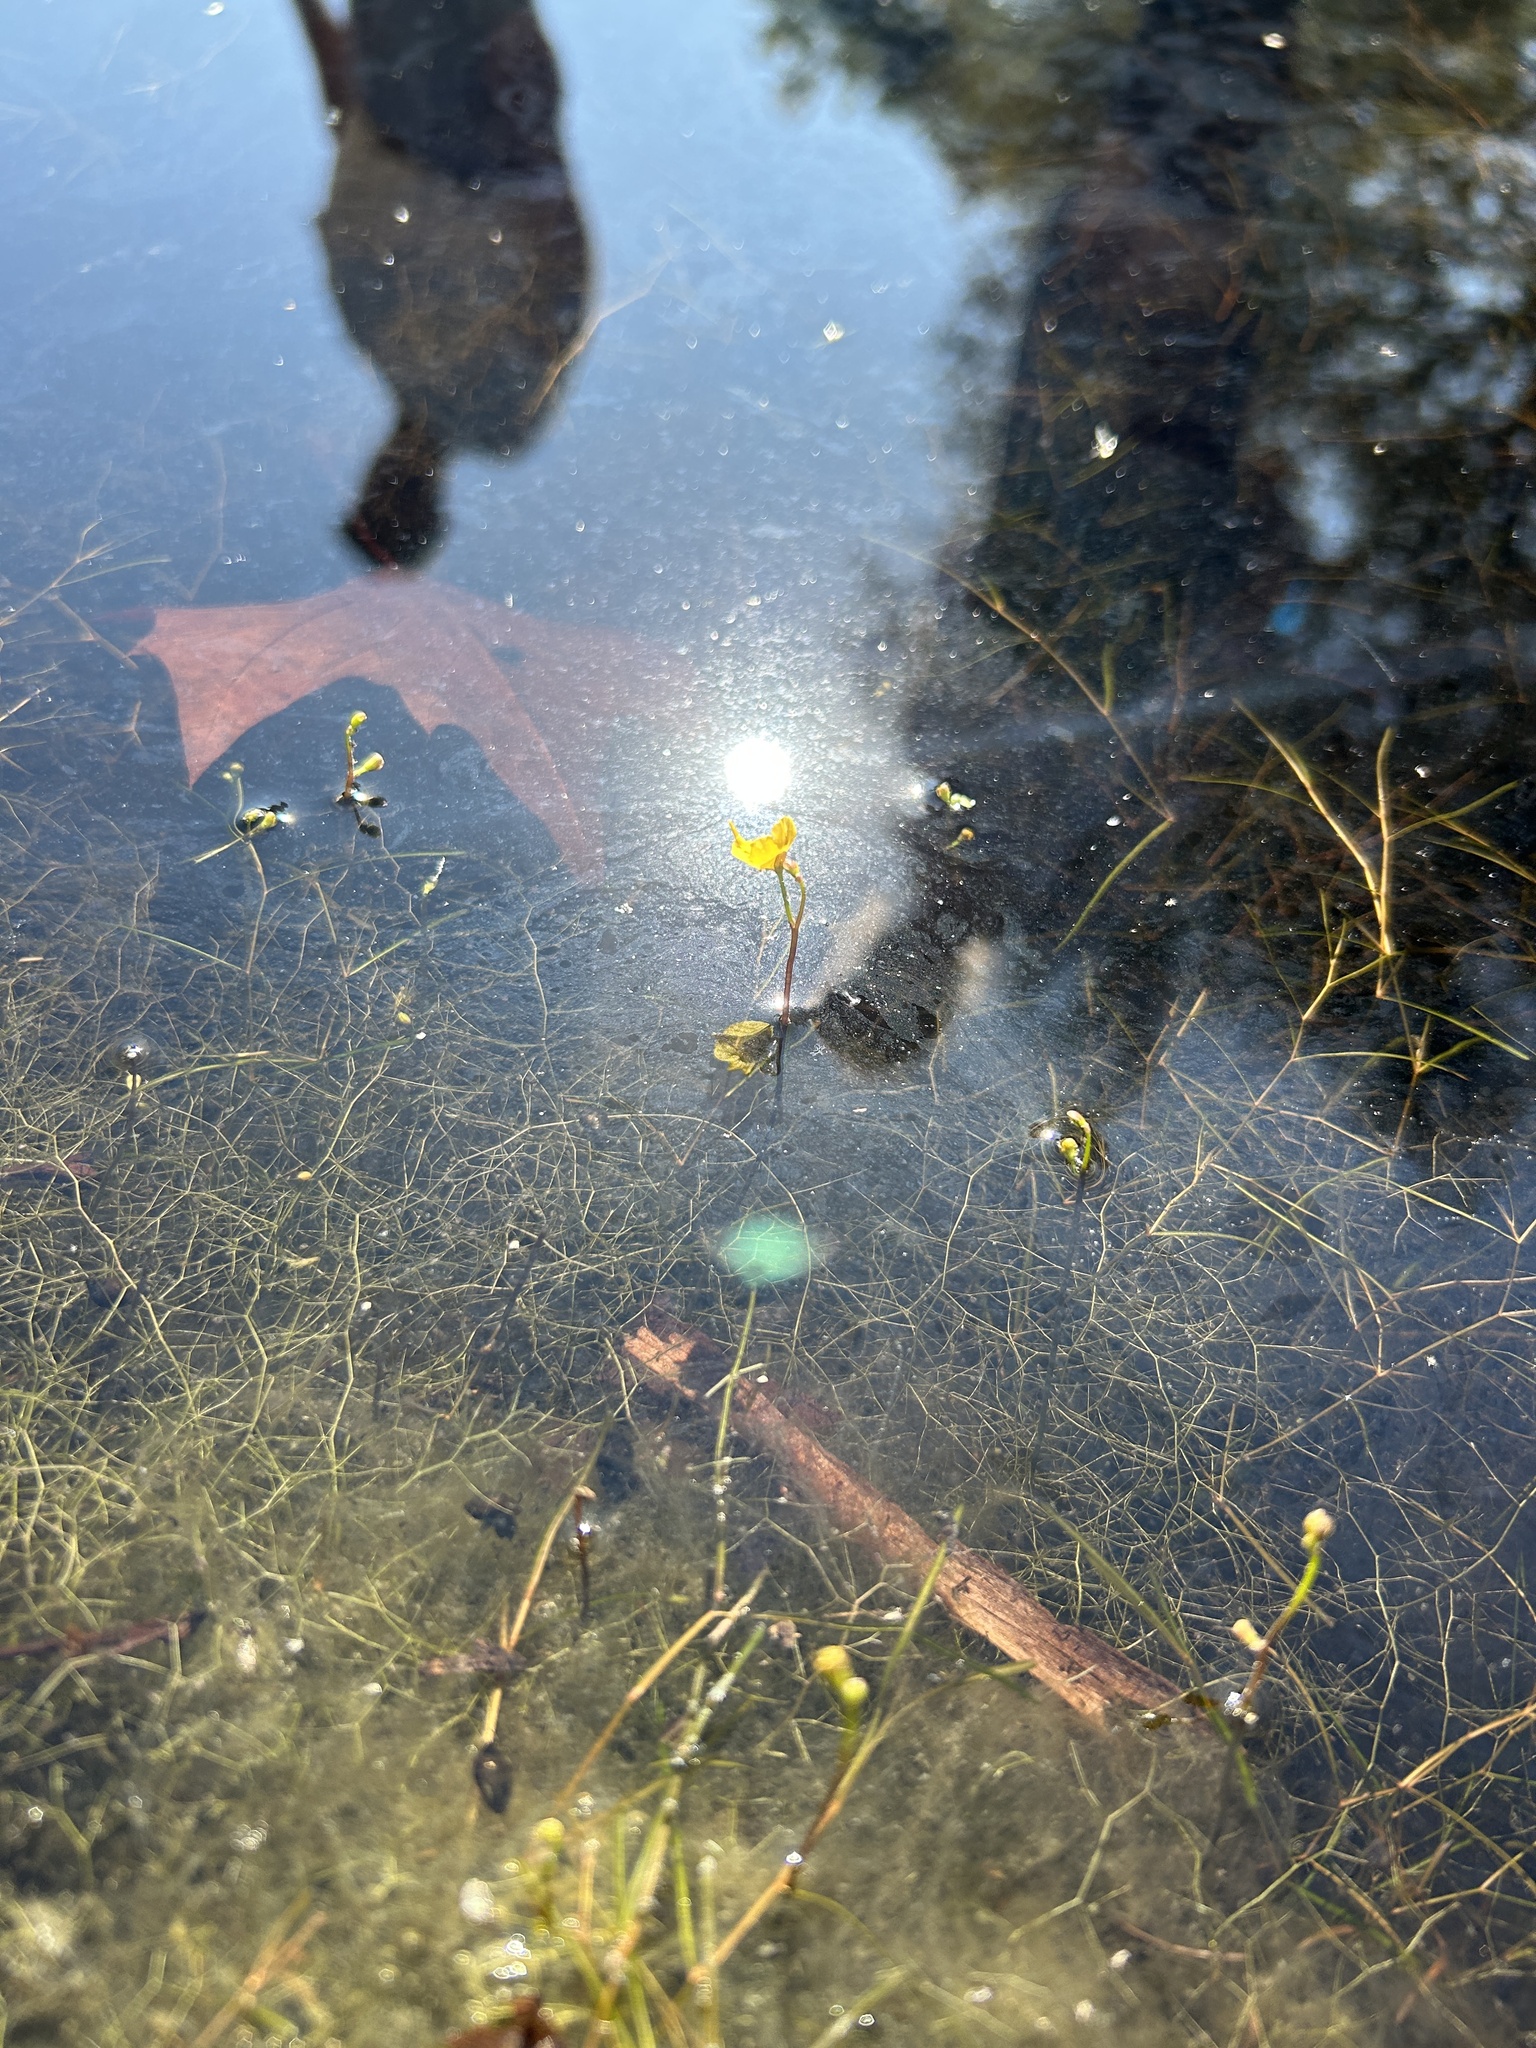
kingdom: Plantae
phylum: Tracheophyta
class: Magnoliopsida
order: Lamiales
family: Lentibulariaceae
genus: Utricularia
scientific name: Utricularia gibba
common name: Humped bladderwort
